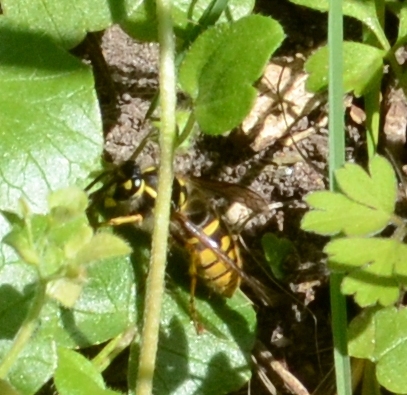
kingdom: Animalia
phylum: Arthropoda
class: Insecta
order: Hymenoptera
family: Vespidae
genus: Vespula
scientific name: Vespula vulgaris
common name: Common wasp
